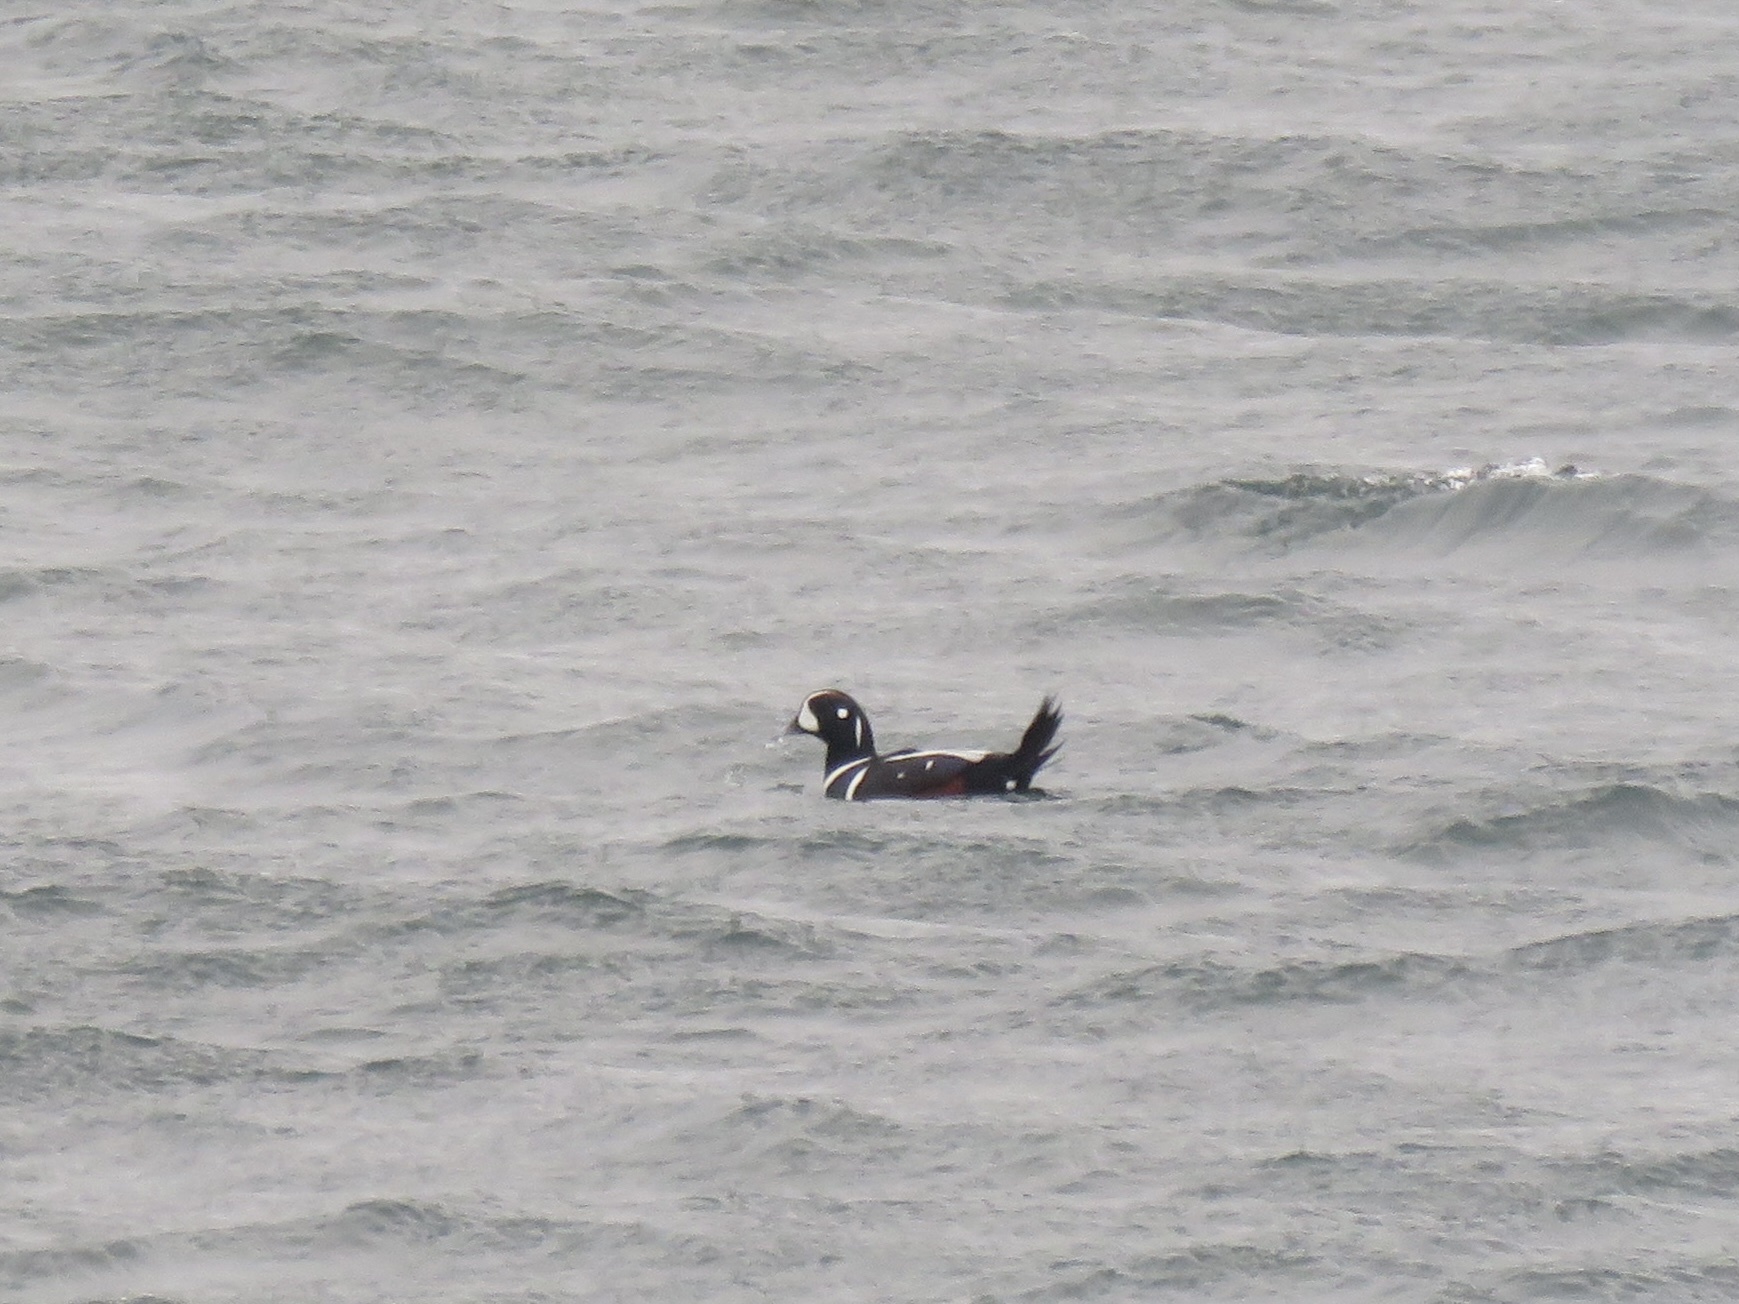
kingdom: Animalia
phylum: Chordata
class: Aves
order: Anseriformes
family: Anatidae
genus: Histrionicus
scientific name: Histrionicus histrionicus
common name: Harlequin duck
